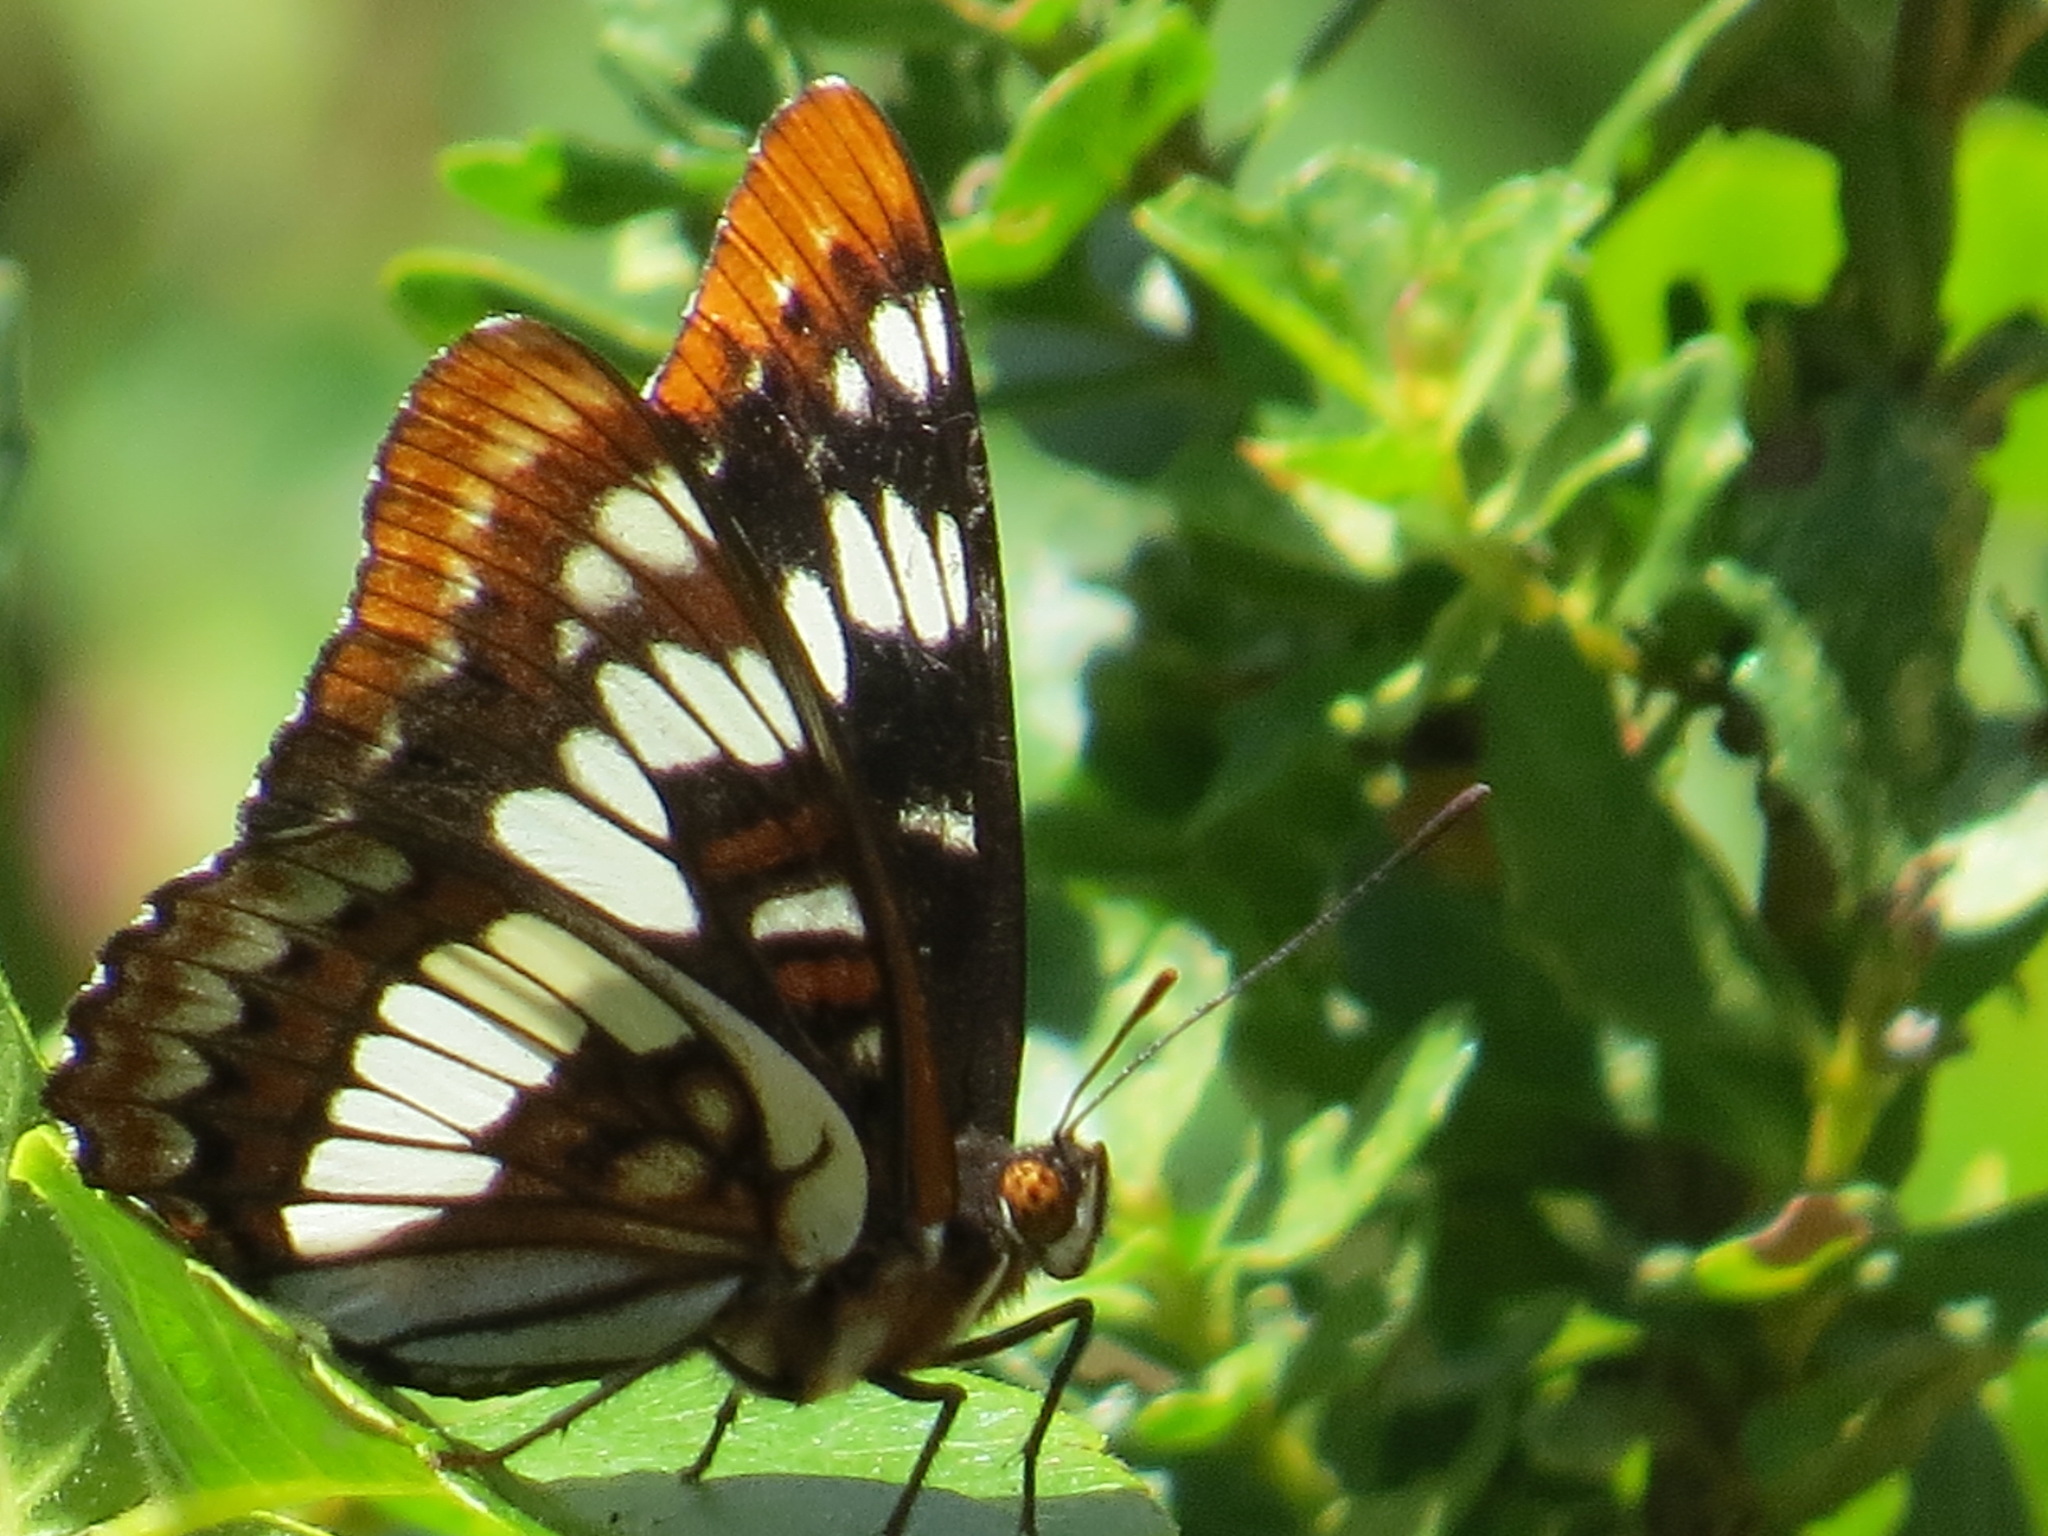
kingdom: Animalia
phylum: Arthropoda
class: Insecta
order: Lepidoptera
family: Nymphalidae
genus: Limenitis
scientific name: Limenitis lorquini
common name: Lorquin's admiral
